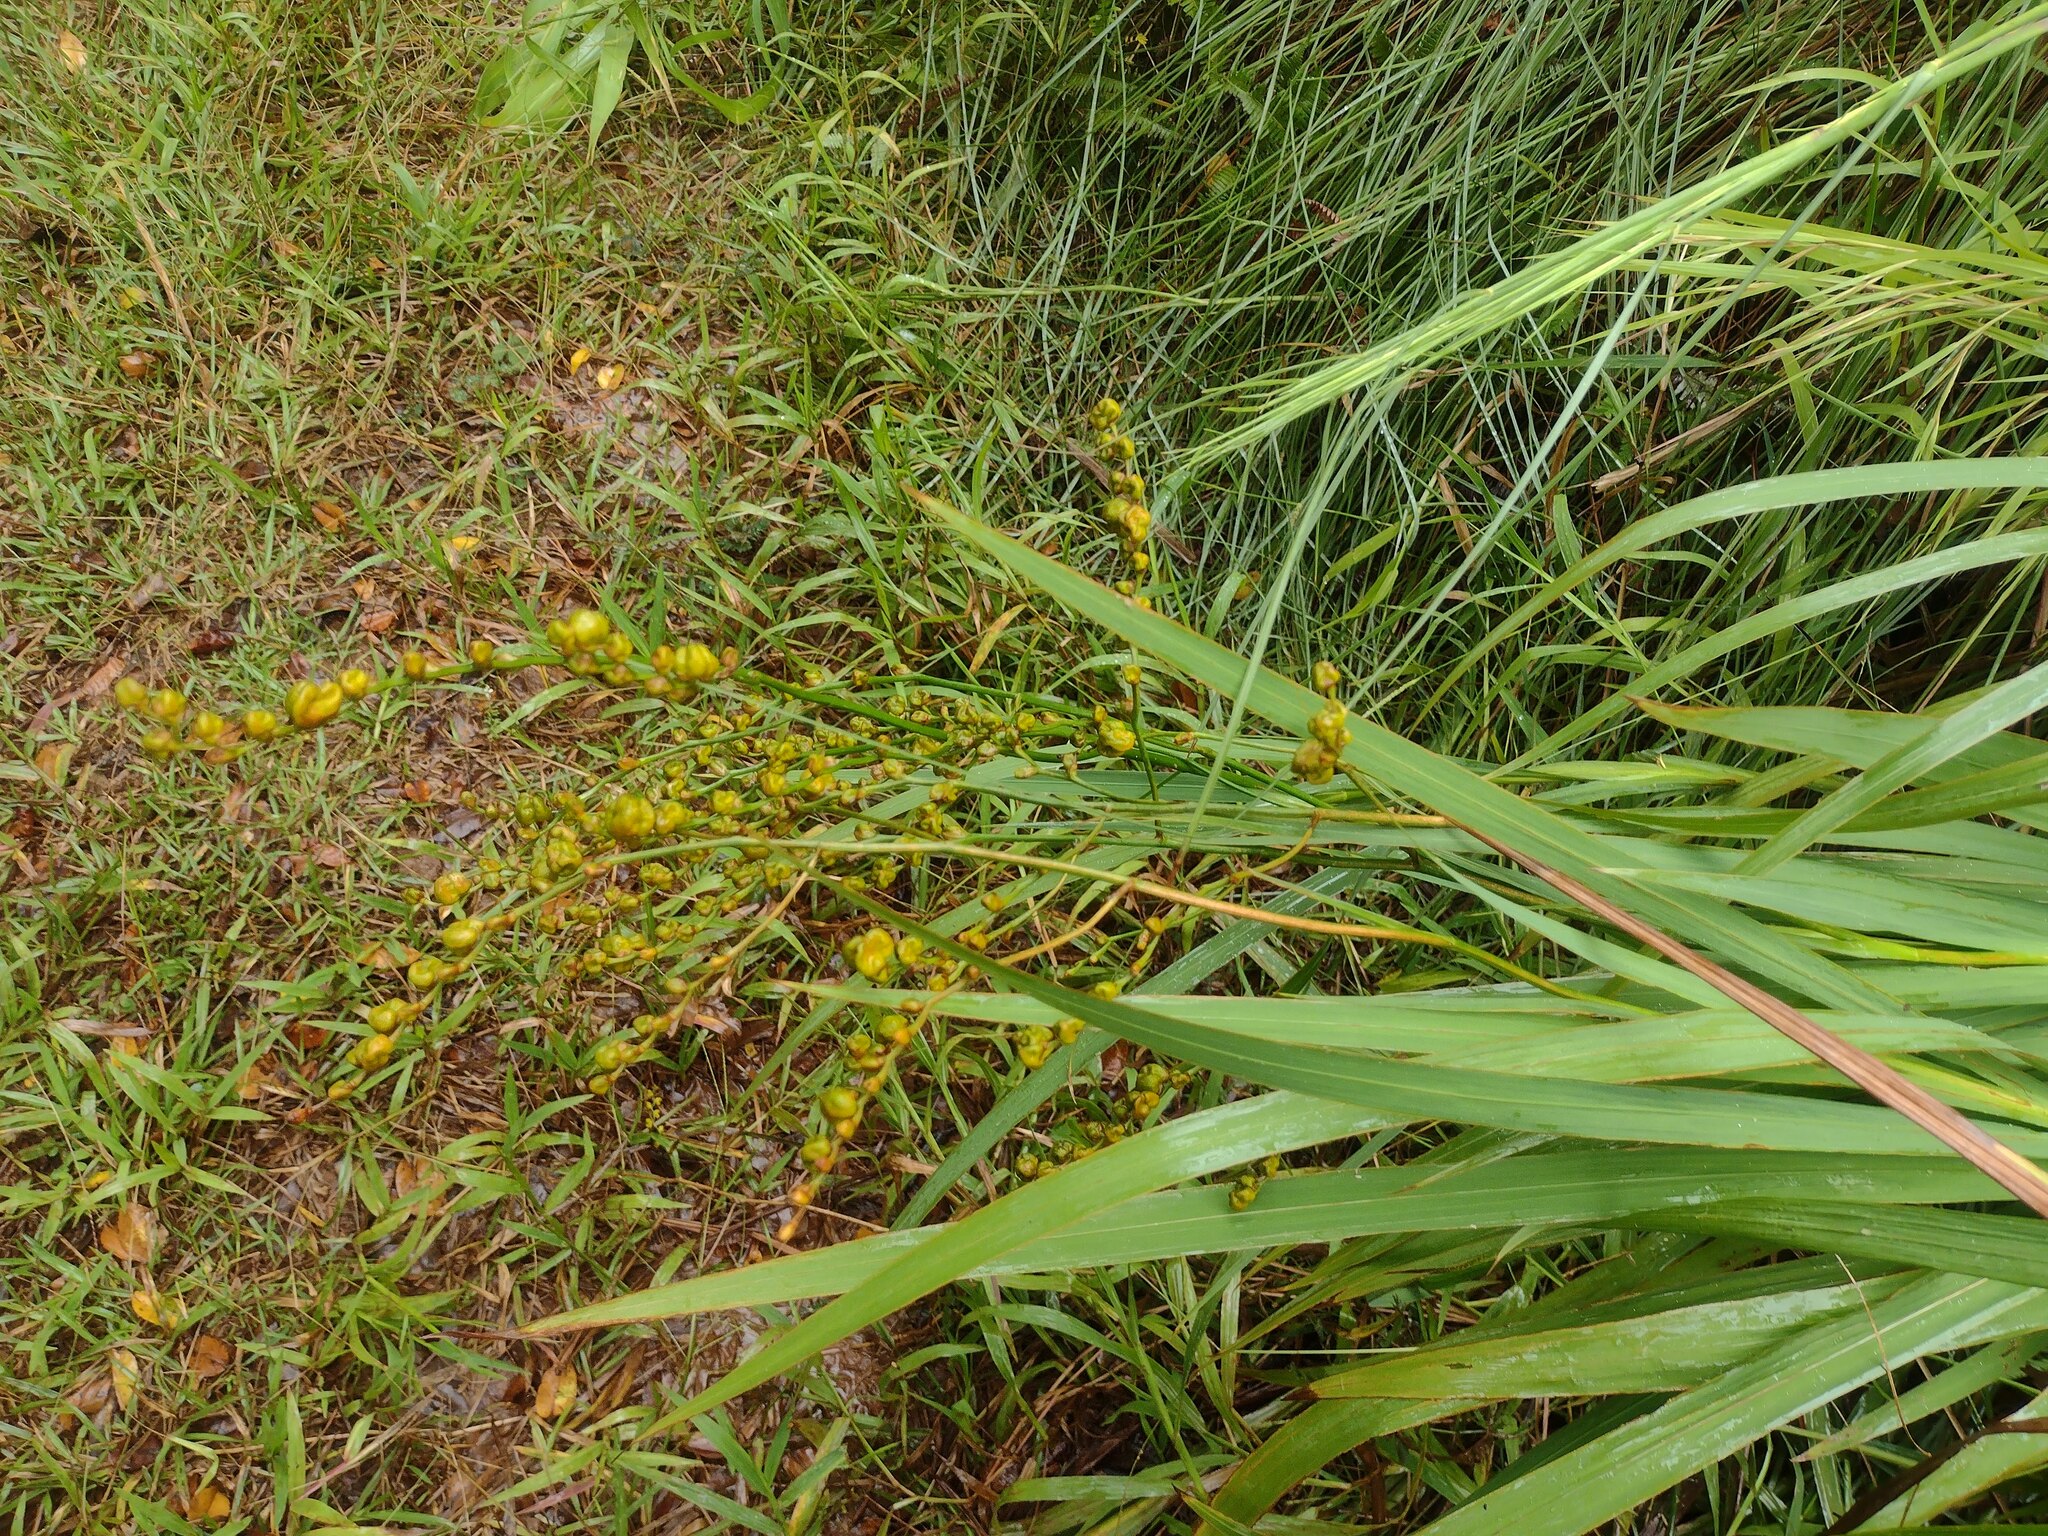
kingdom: Plantae
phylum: Tracheophyta
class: Liliopsida
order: Asparagales
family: Iridaceae
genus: Crocosmia
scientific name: Crocosmia crocosmiiflora
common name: Montbretia
